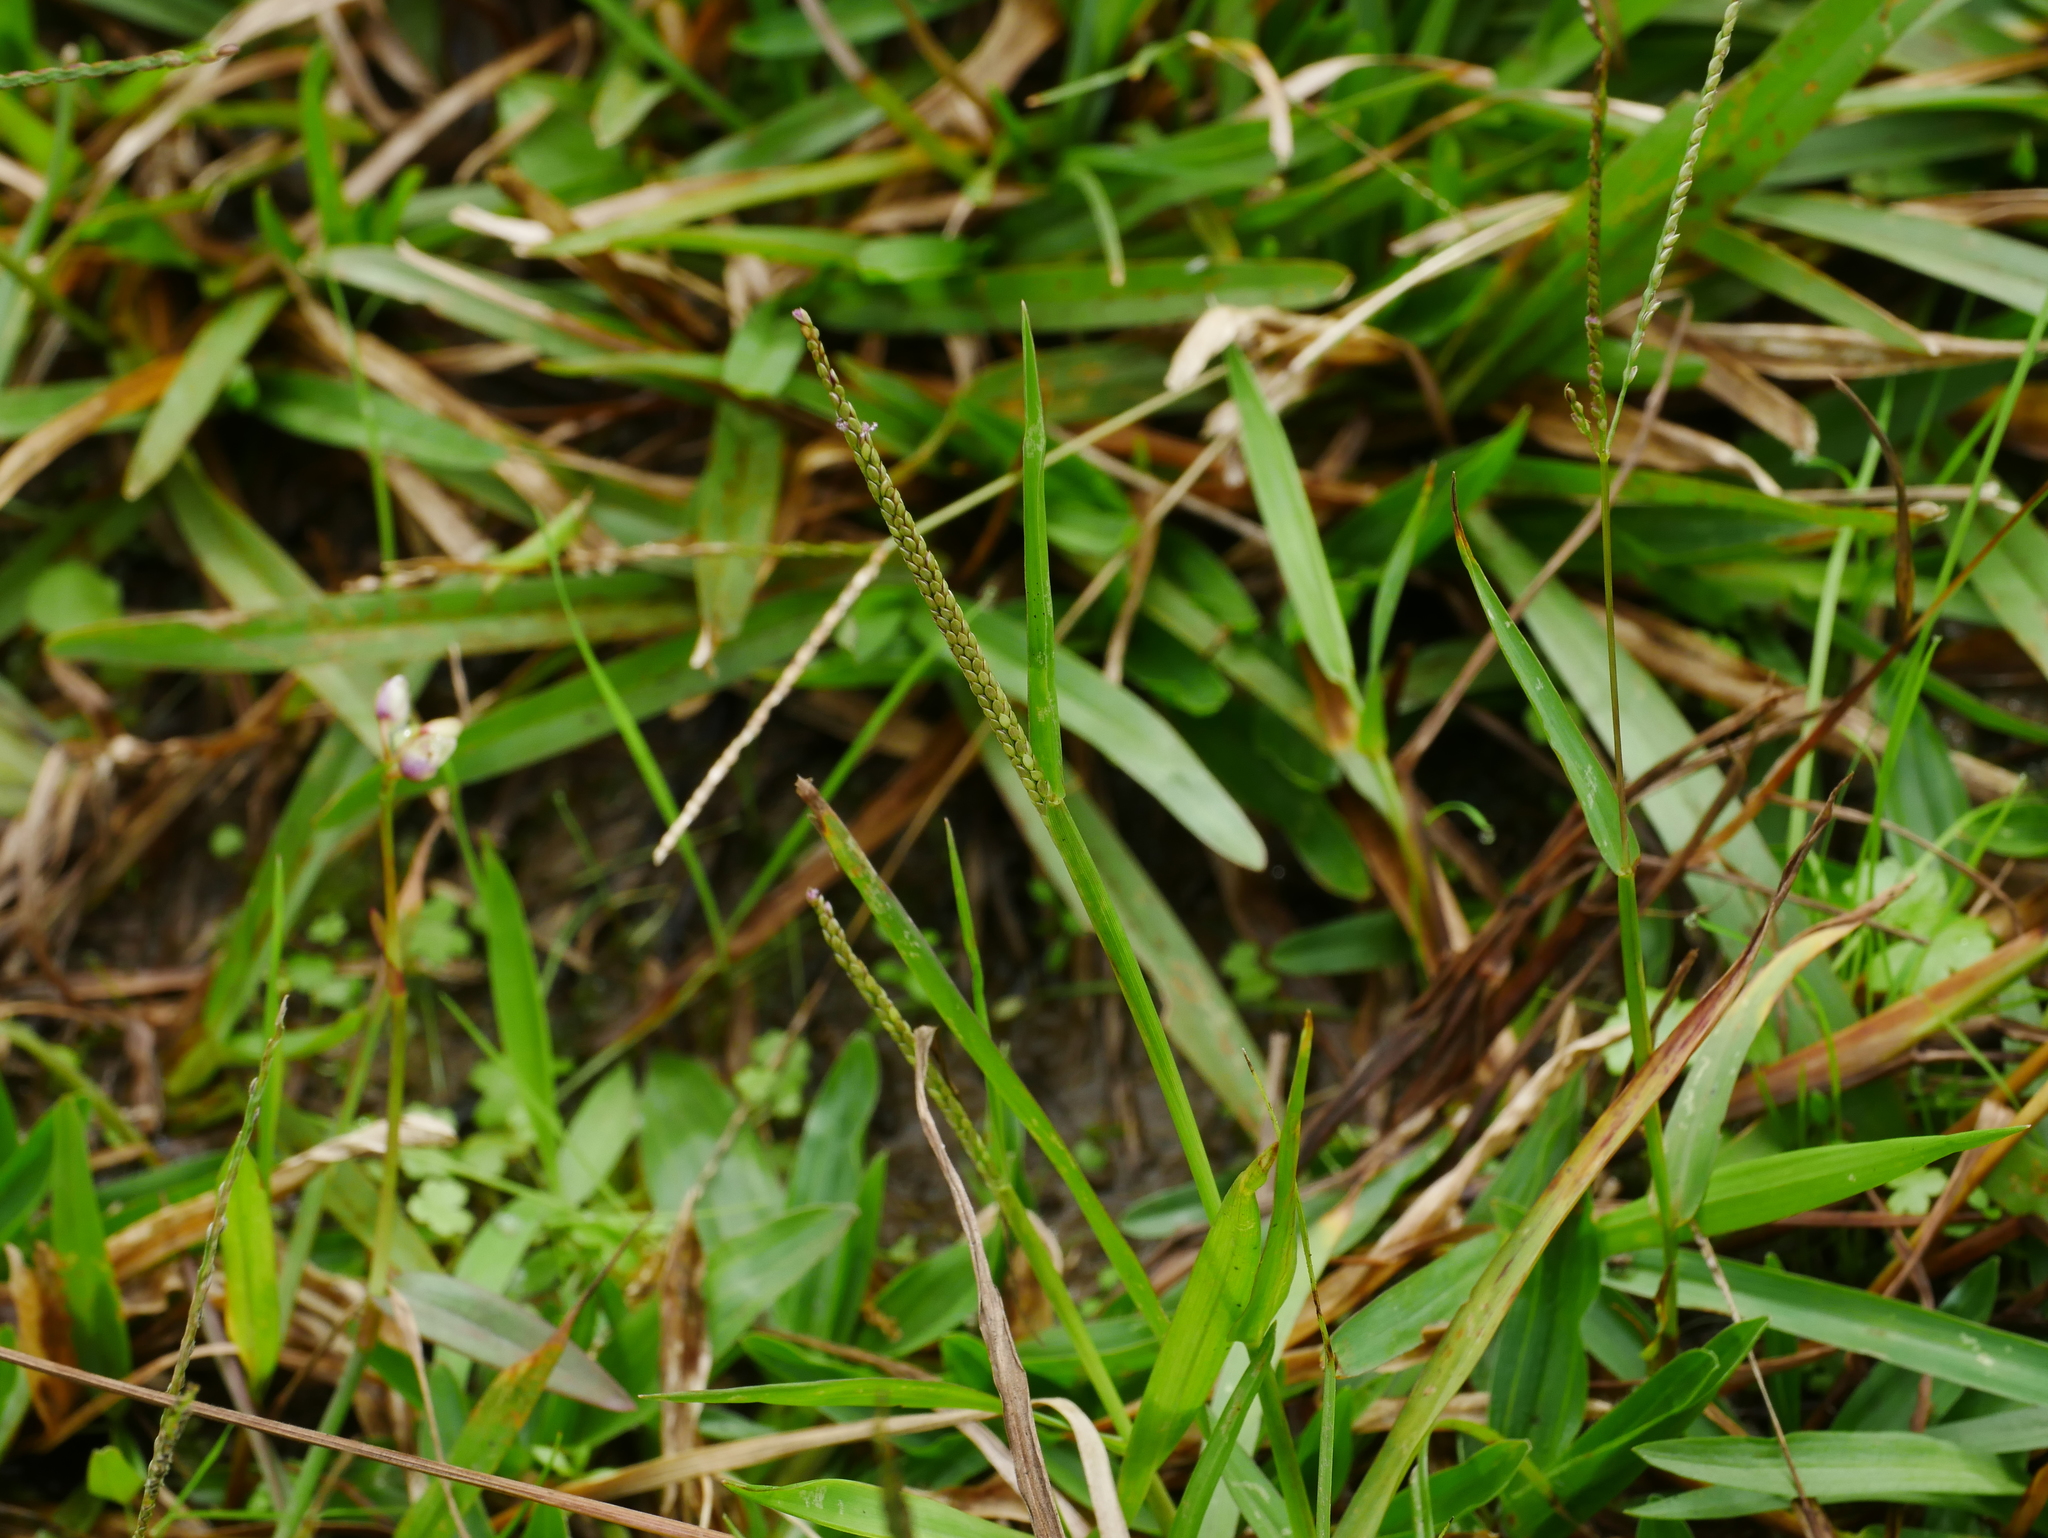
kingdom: Plantae
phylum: Tracheophyta
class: Liliopsida
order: Poales
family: Poaceae
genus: Digitaria
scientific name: Digitaria violascens
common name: Violet crabgrass
